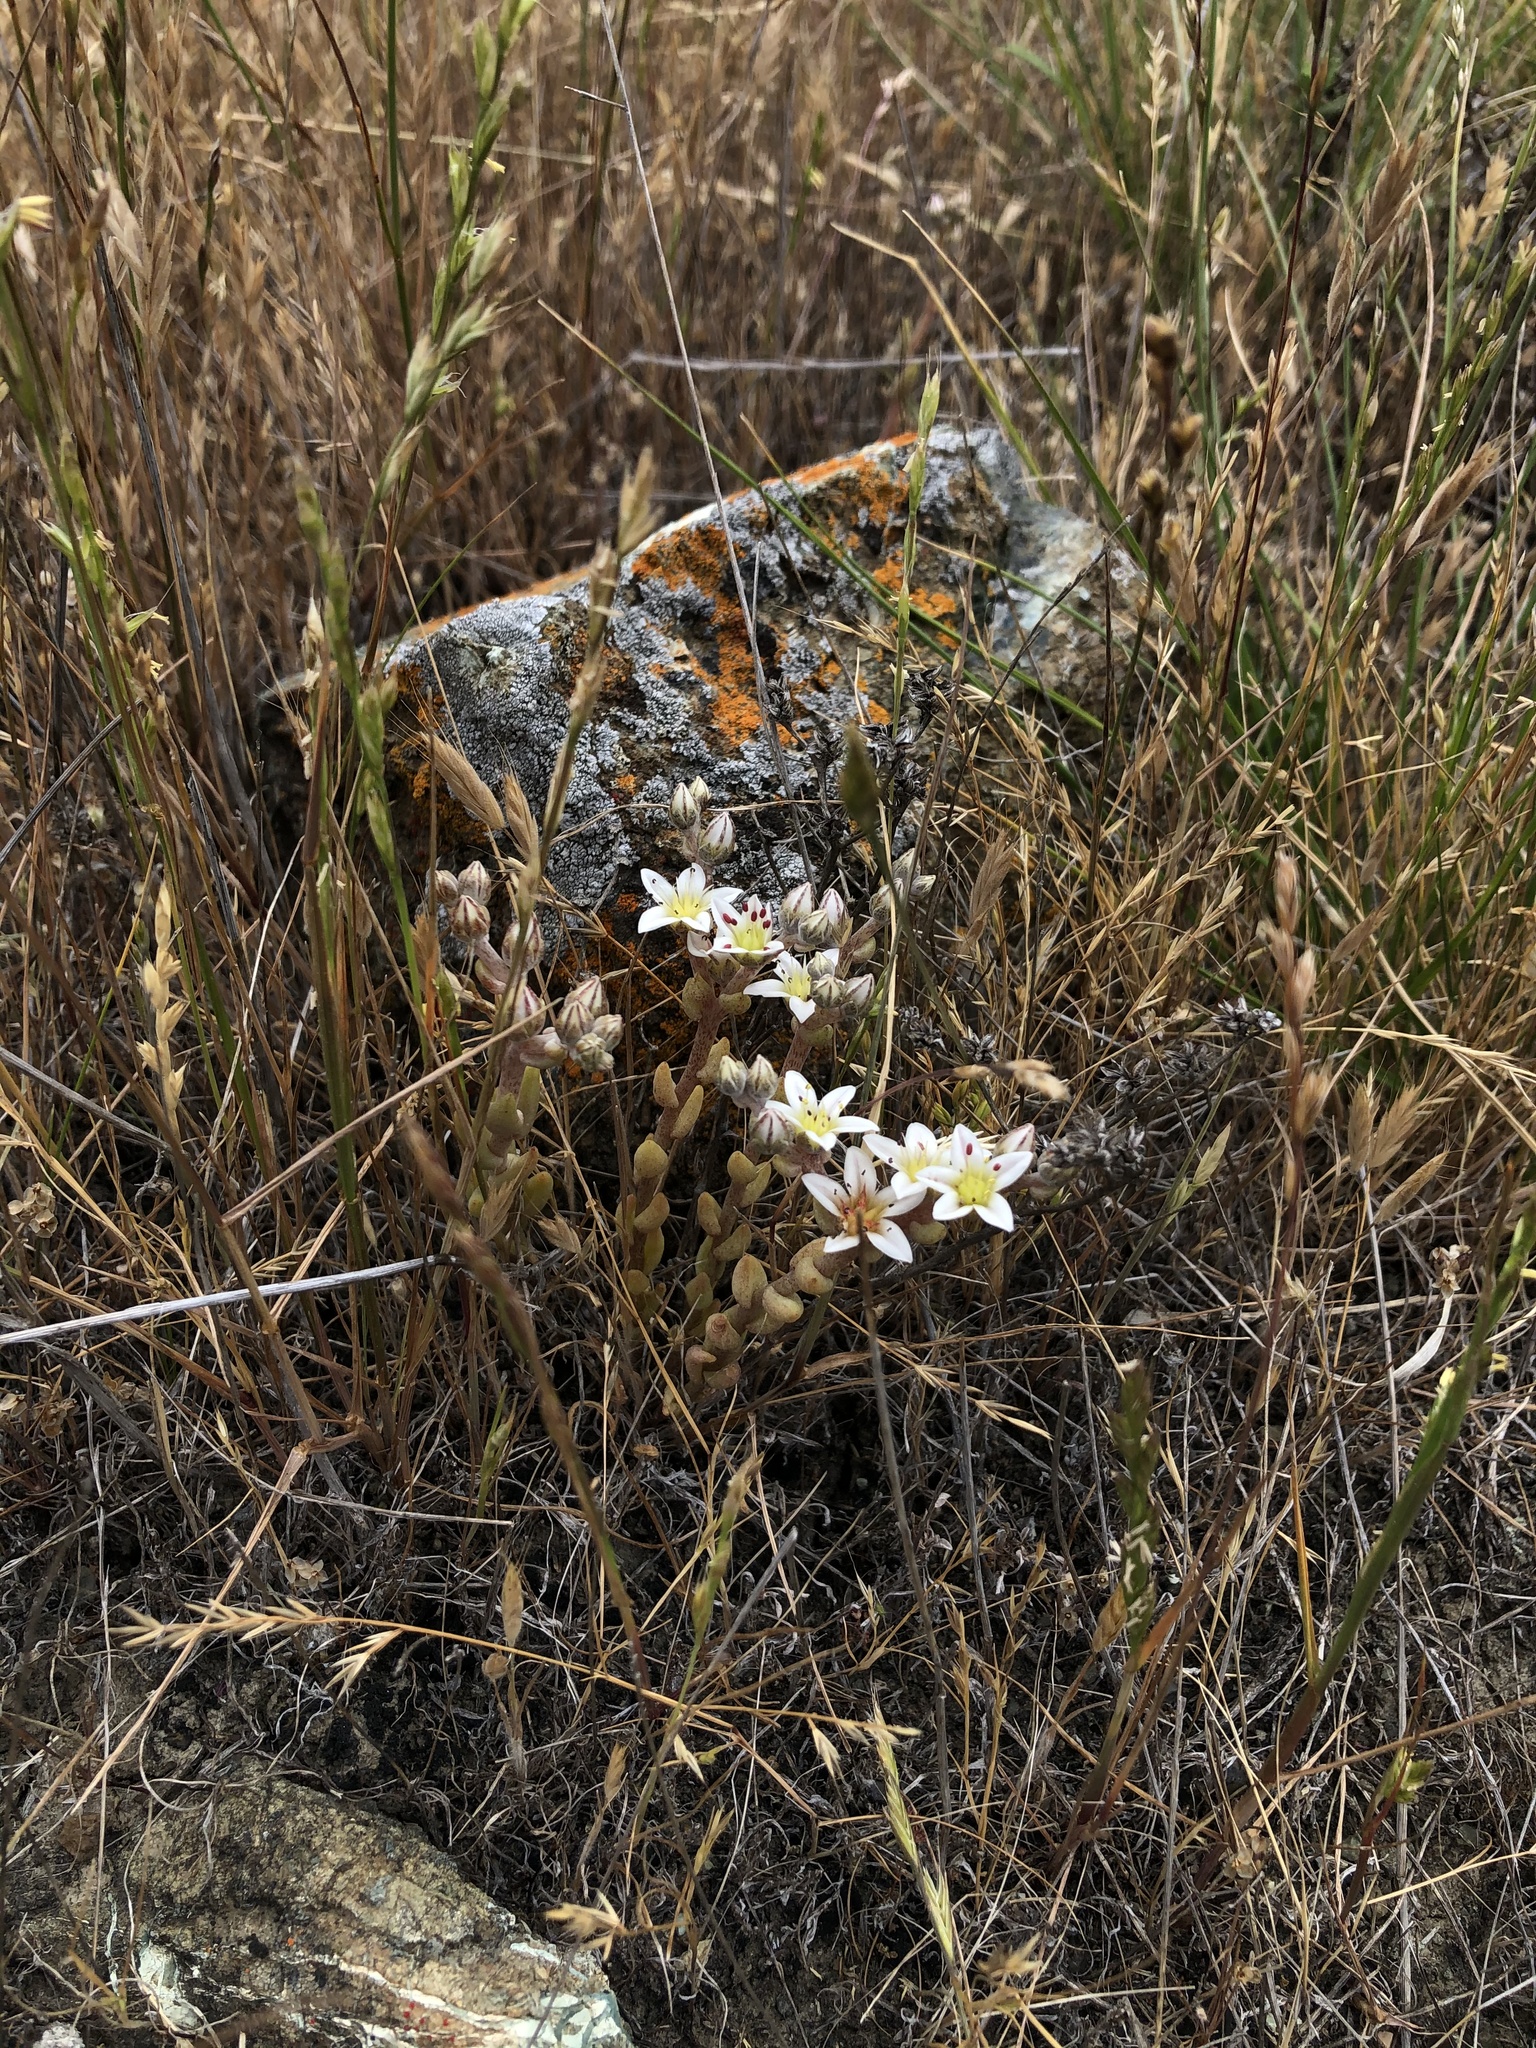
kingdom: Plantae
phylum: Tracheophyta
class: Magnoliopsida
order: Saxifragales
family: Crassulaceae
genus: Dudleya
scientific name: Dudleya blochmaniae
